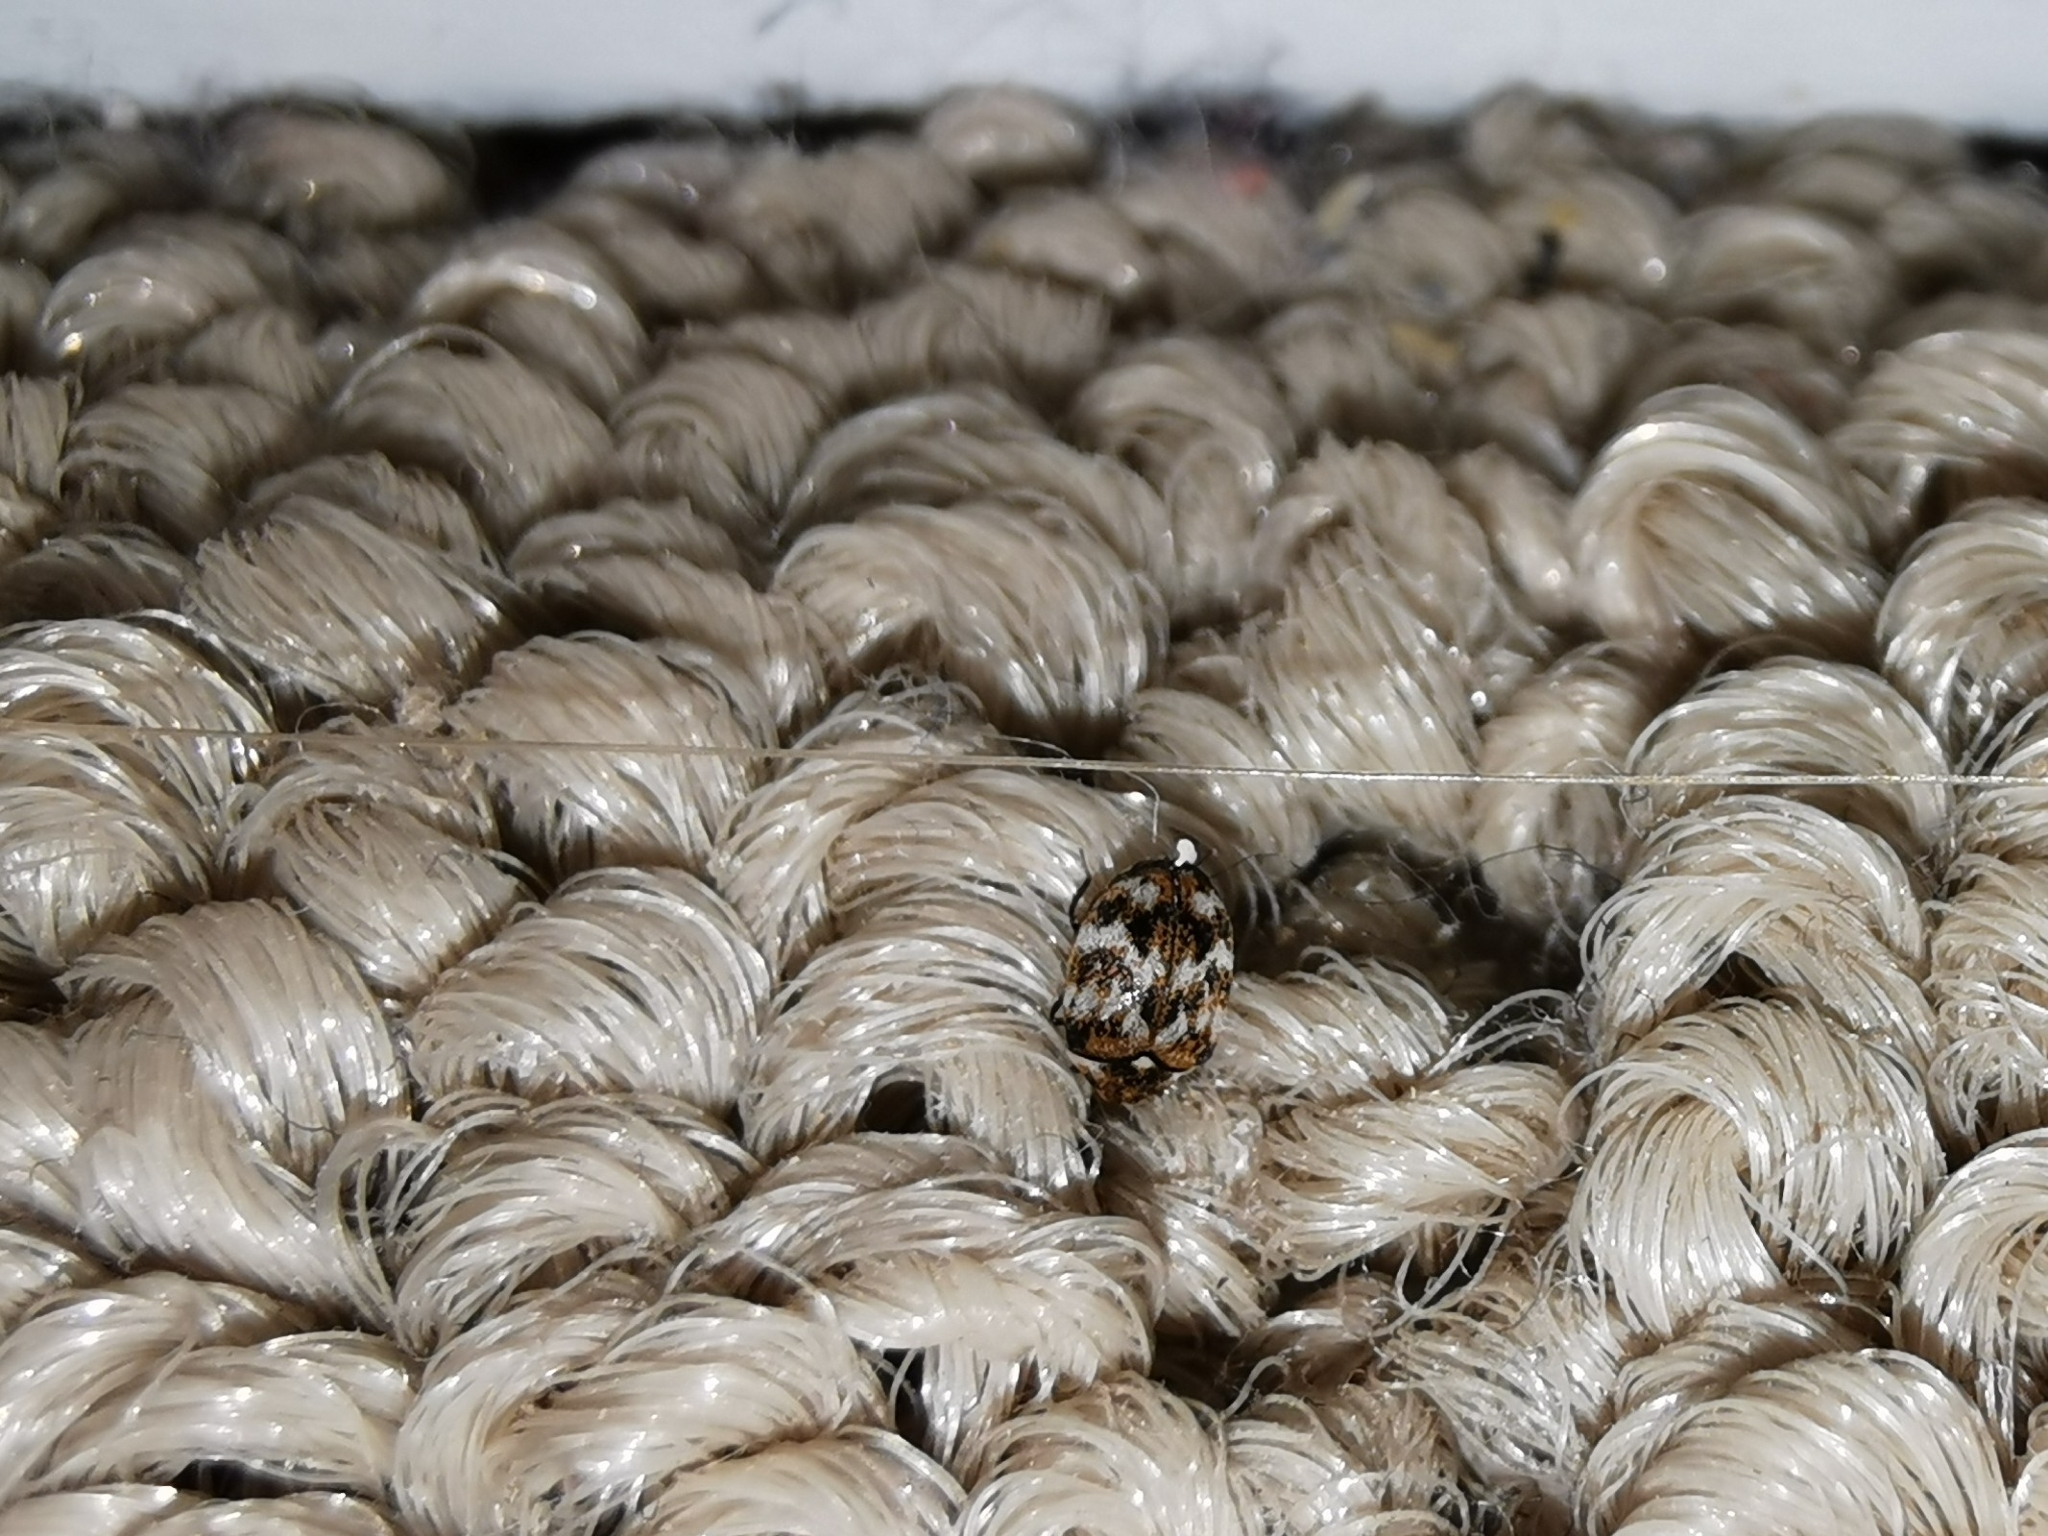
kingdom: Animalia
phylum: Arthropoda
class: Insecta
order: Coleoptera
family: Dermestidae
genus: Anthrenus
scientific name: Anthrenus verbasci
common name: Varied carpet beetle
